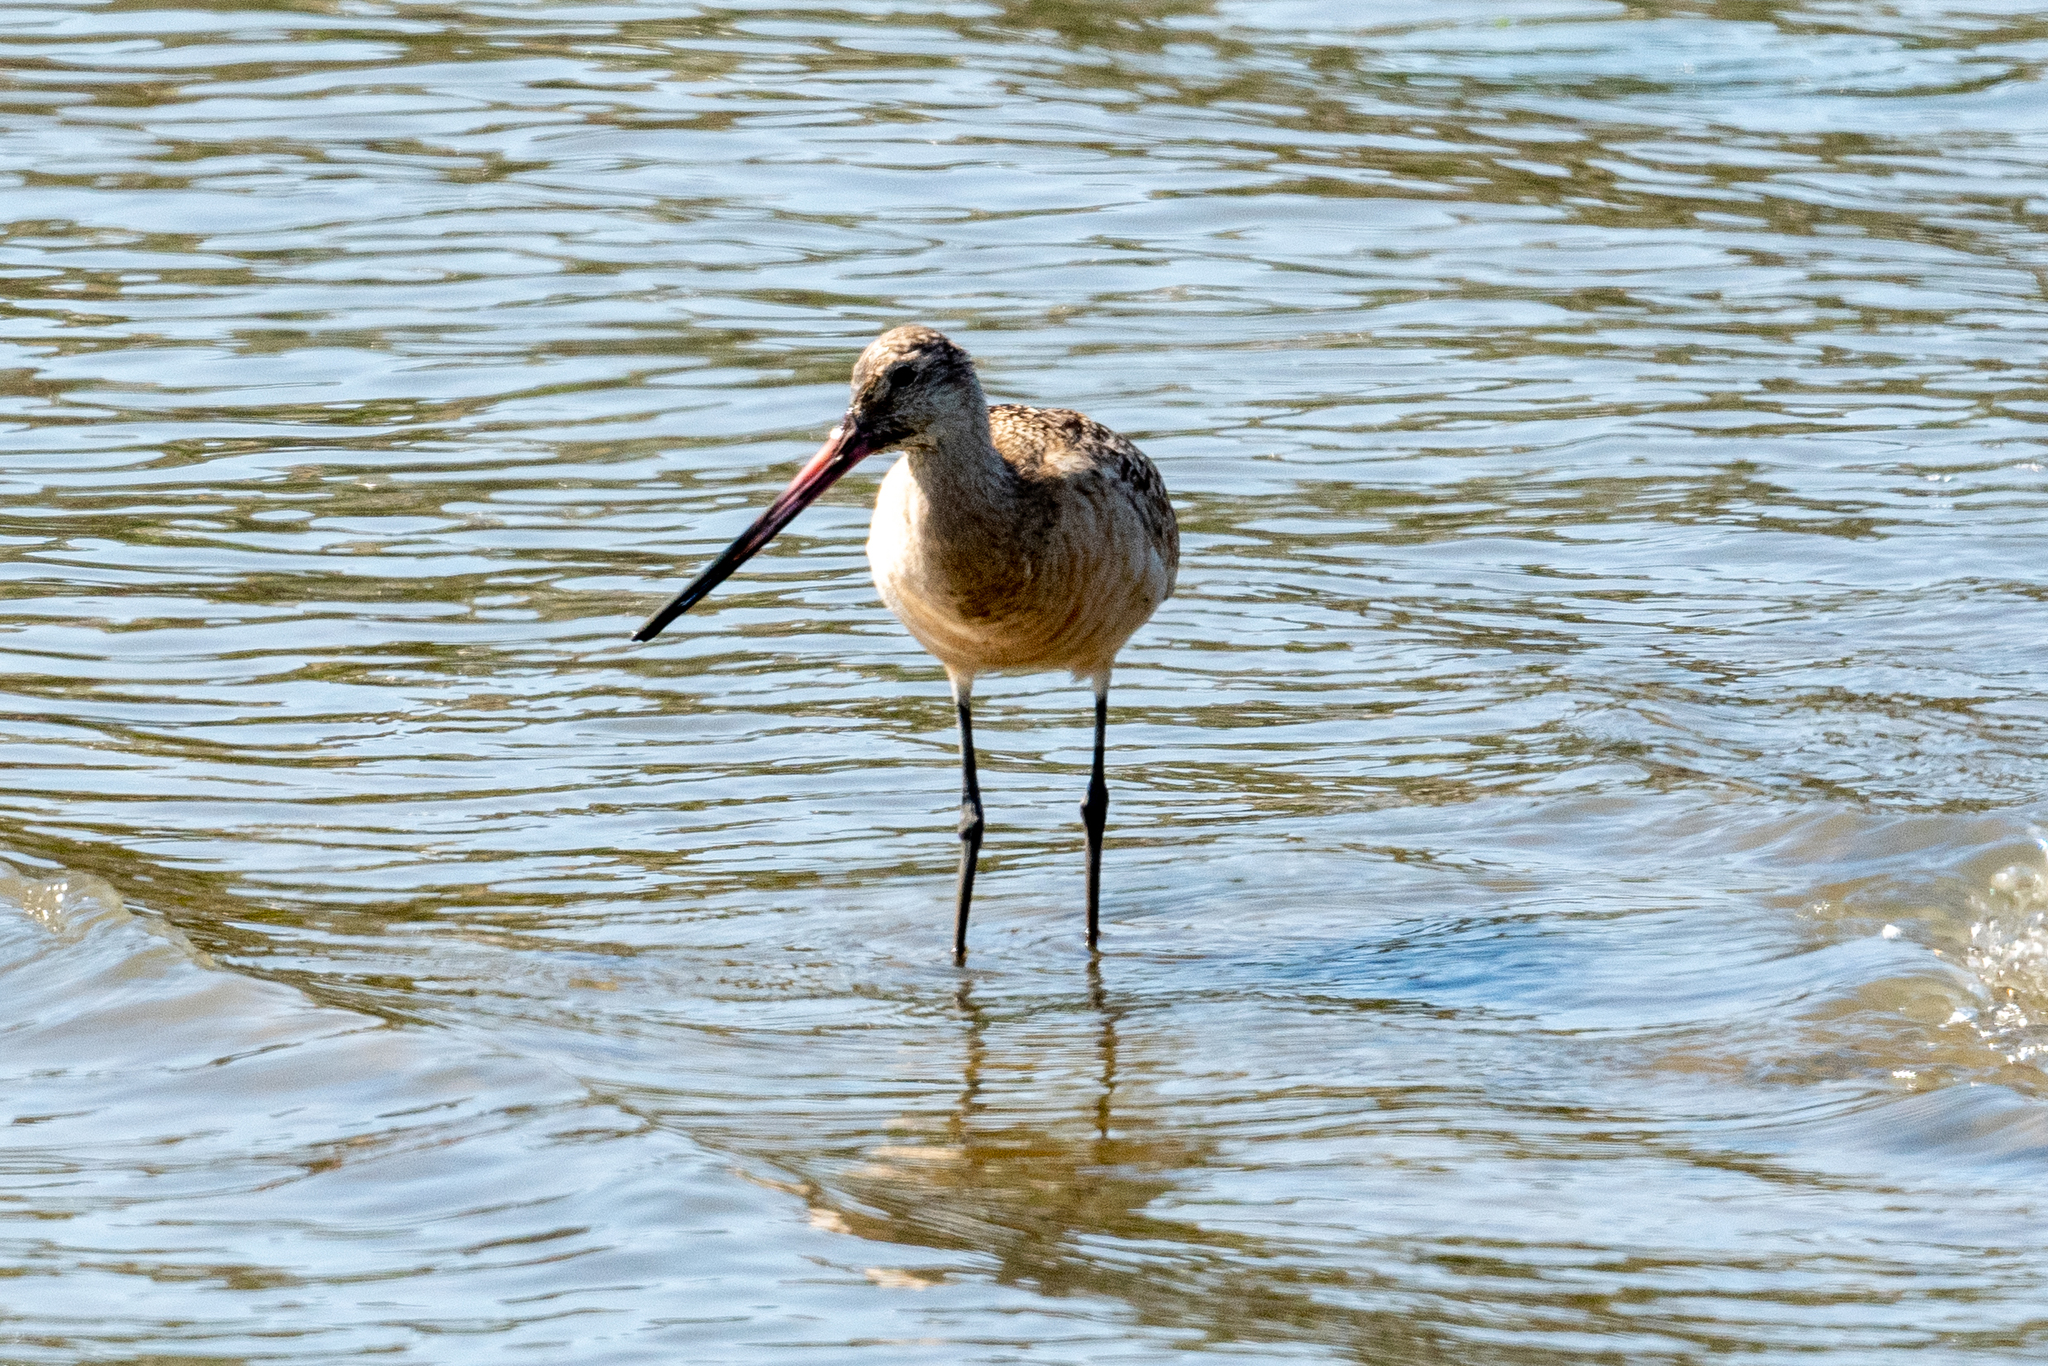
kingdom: Animalia
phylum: Chordata
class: Aves
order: Charadriiformes
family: Scolopacidae
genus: Limosa
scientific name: Limosa fedoa
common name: Marbled godwit
